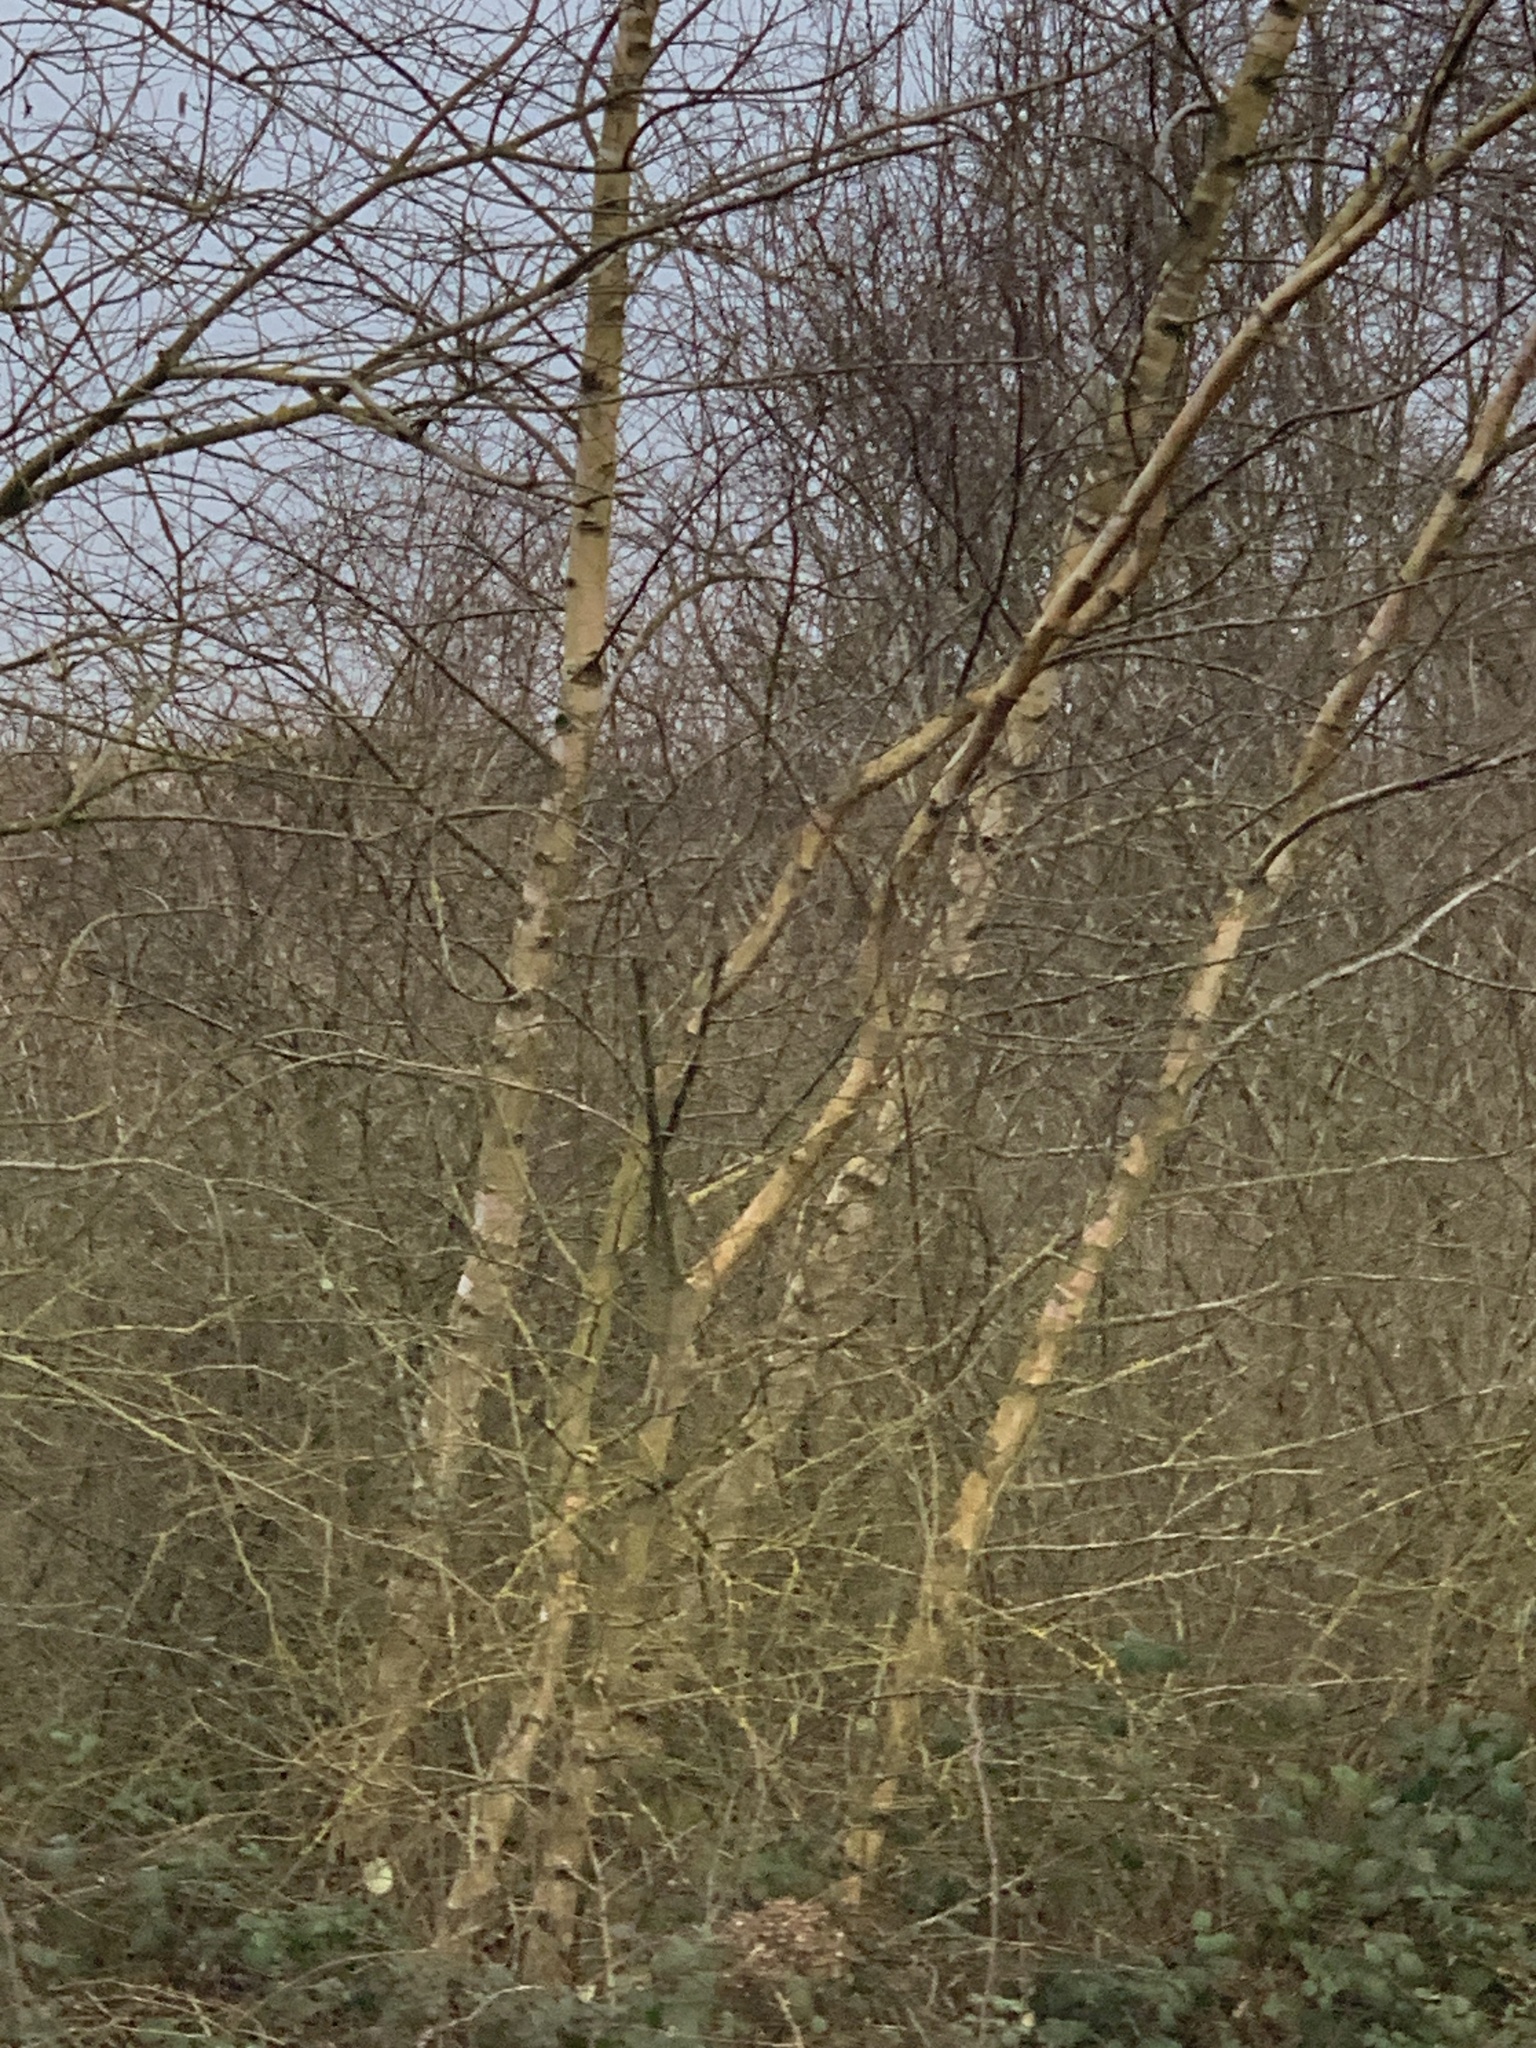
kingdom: Plantae
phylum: Tracheophyta
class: Magnoliopsida
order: Fagales
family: Betulaceae
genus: Betula
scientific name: Betula pendula
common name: Silver birch
